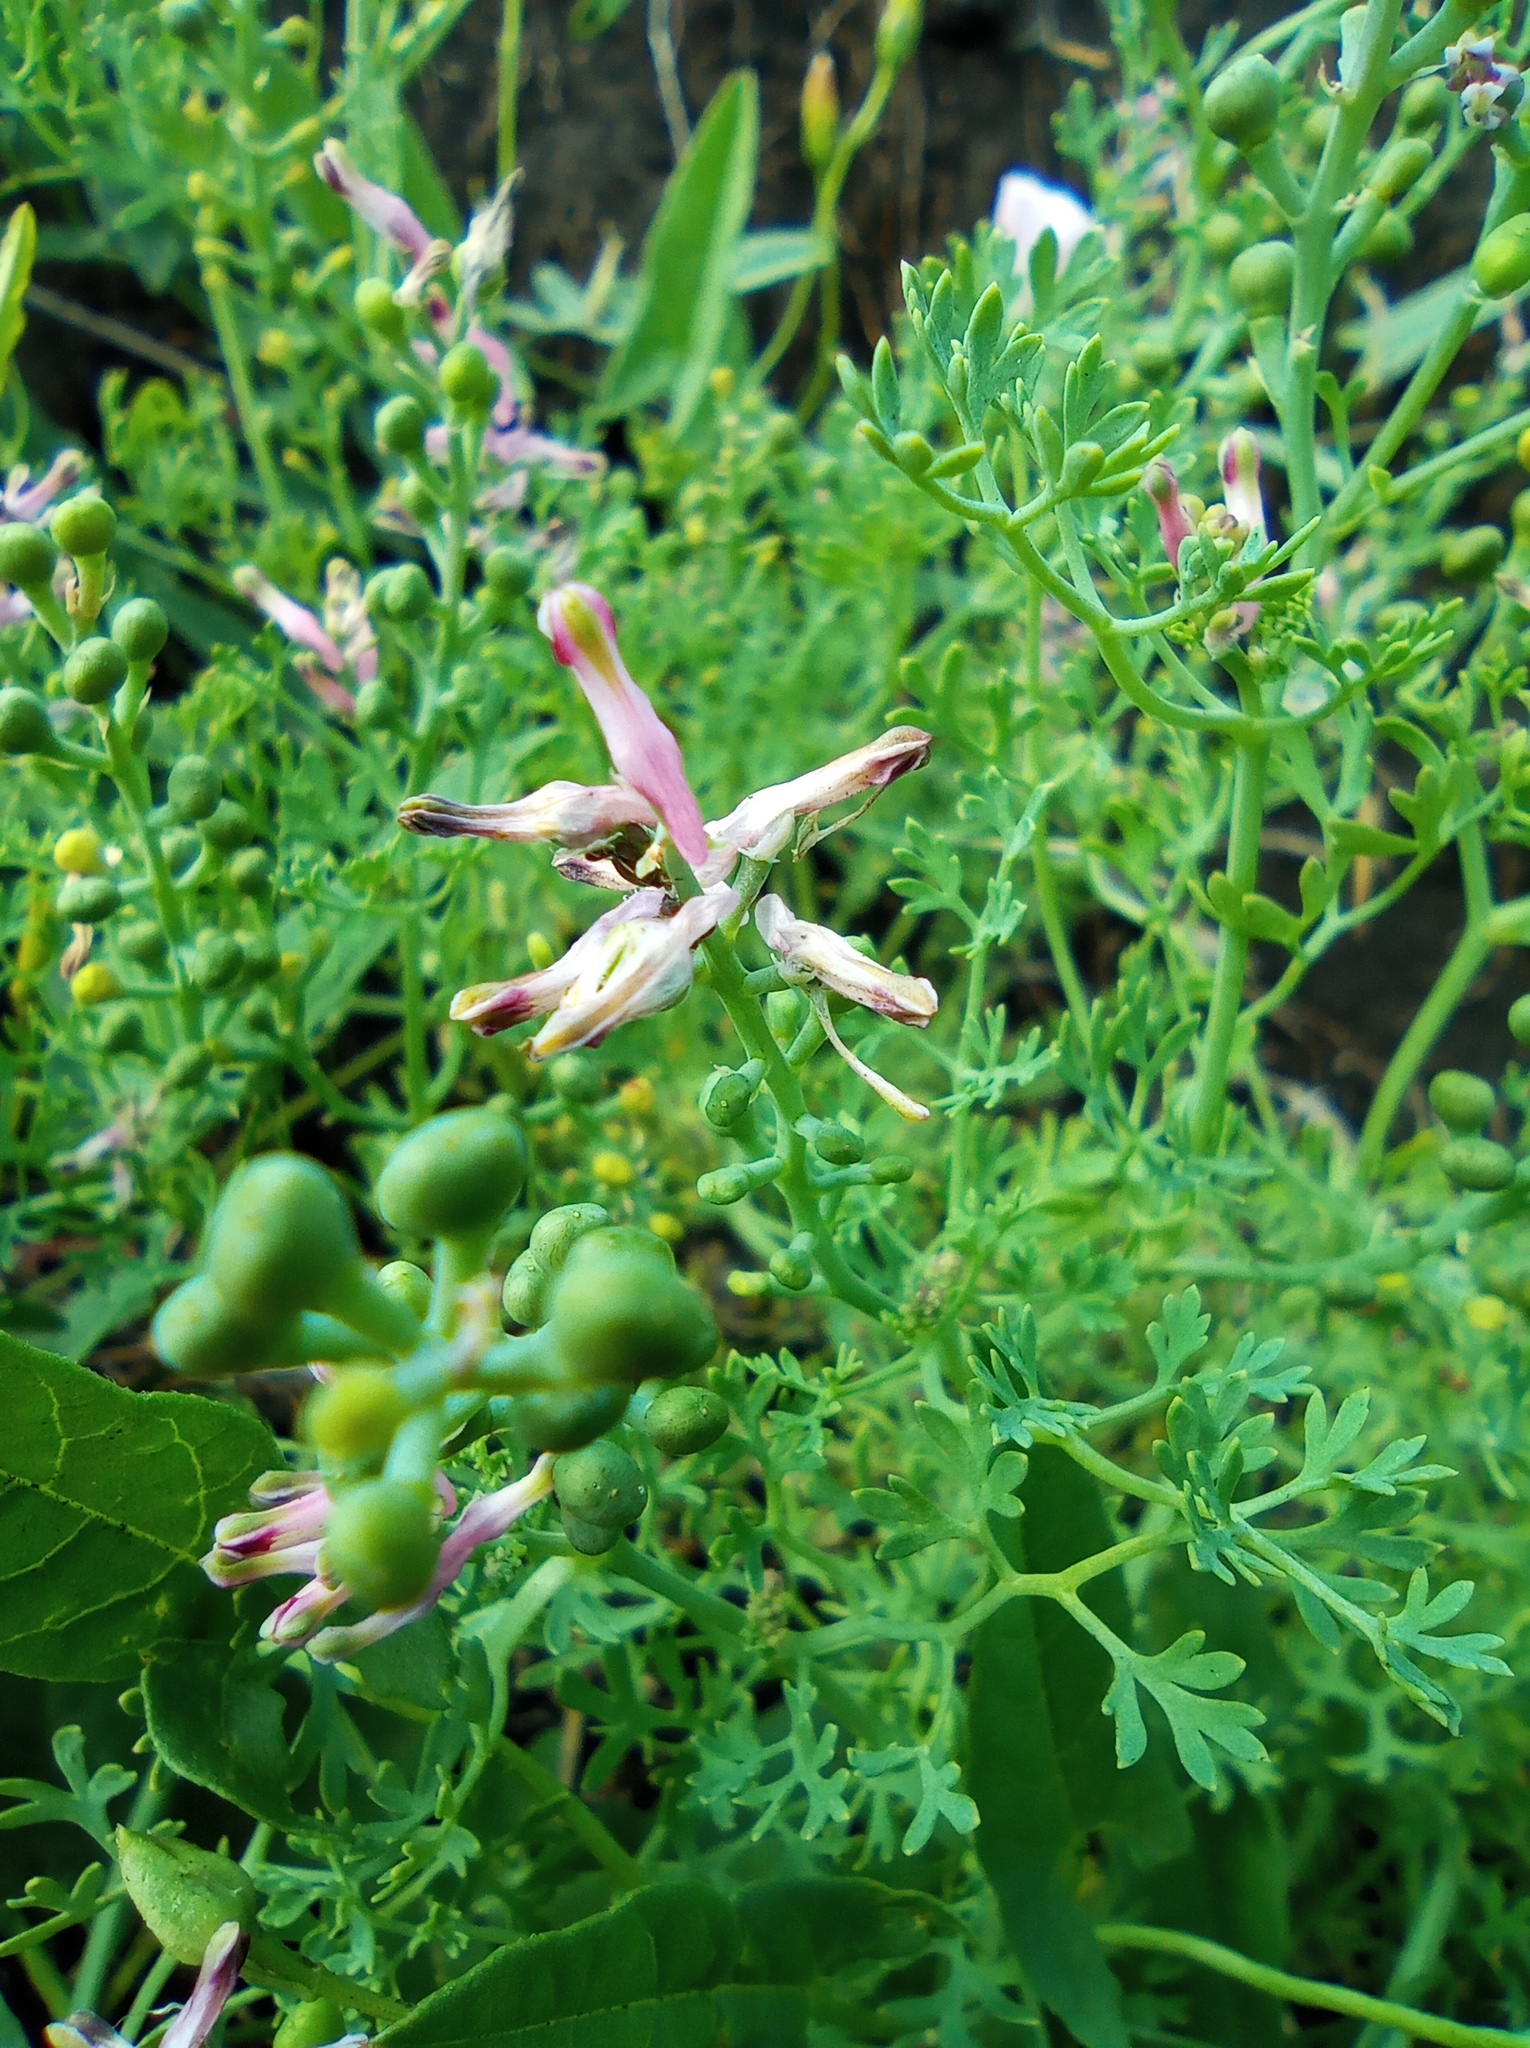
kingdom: Plantae
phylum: Tracheophyta
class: Magnoliopsida
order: Ranunculales
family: Papaveraceae
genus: Fumaria
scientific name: Fumaria officinalis
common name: Common fumitory
